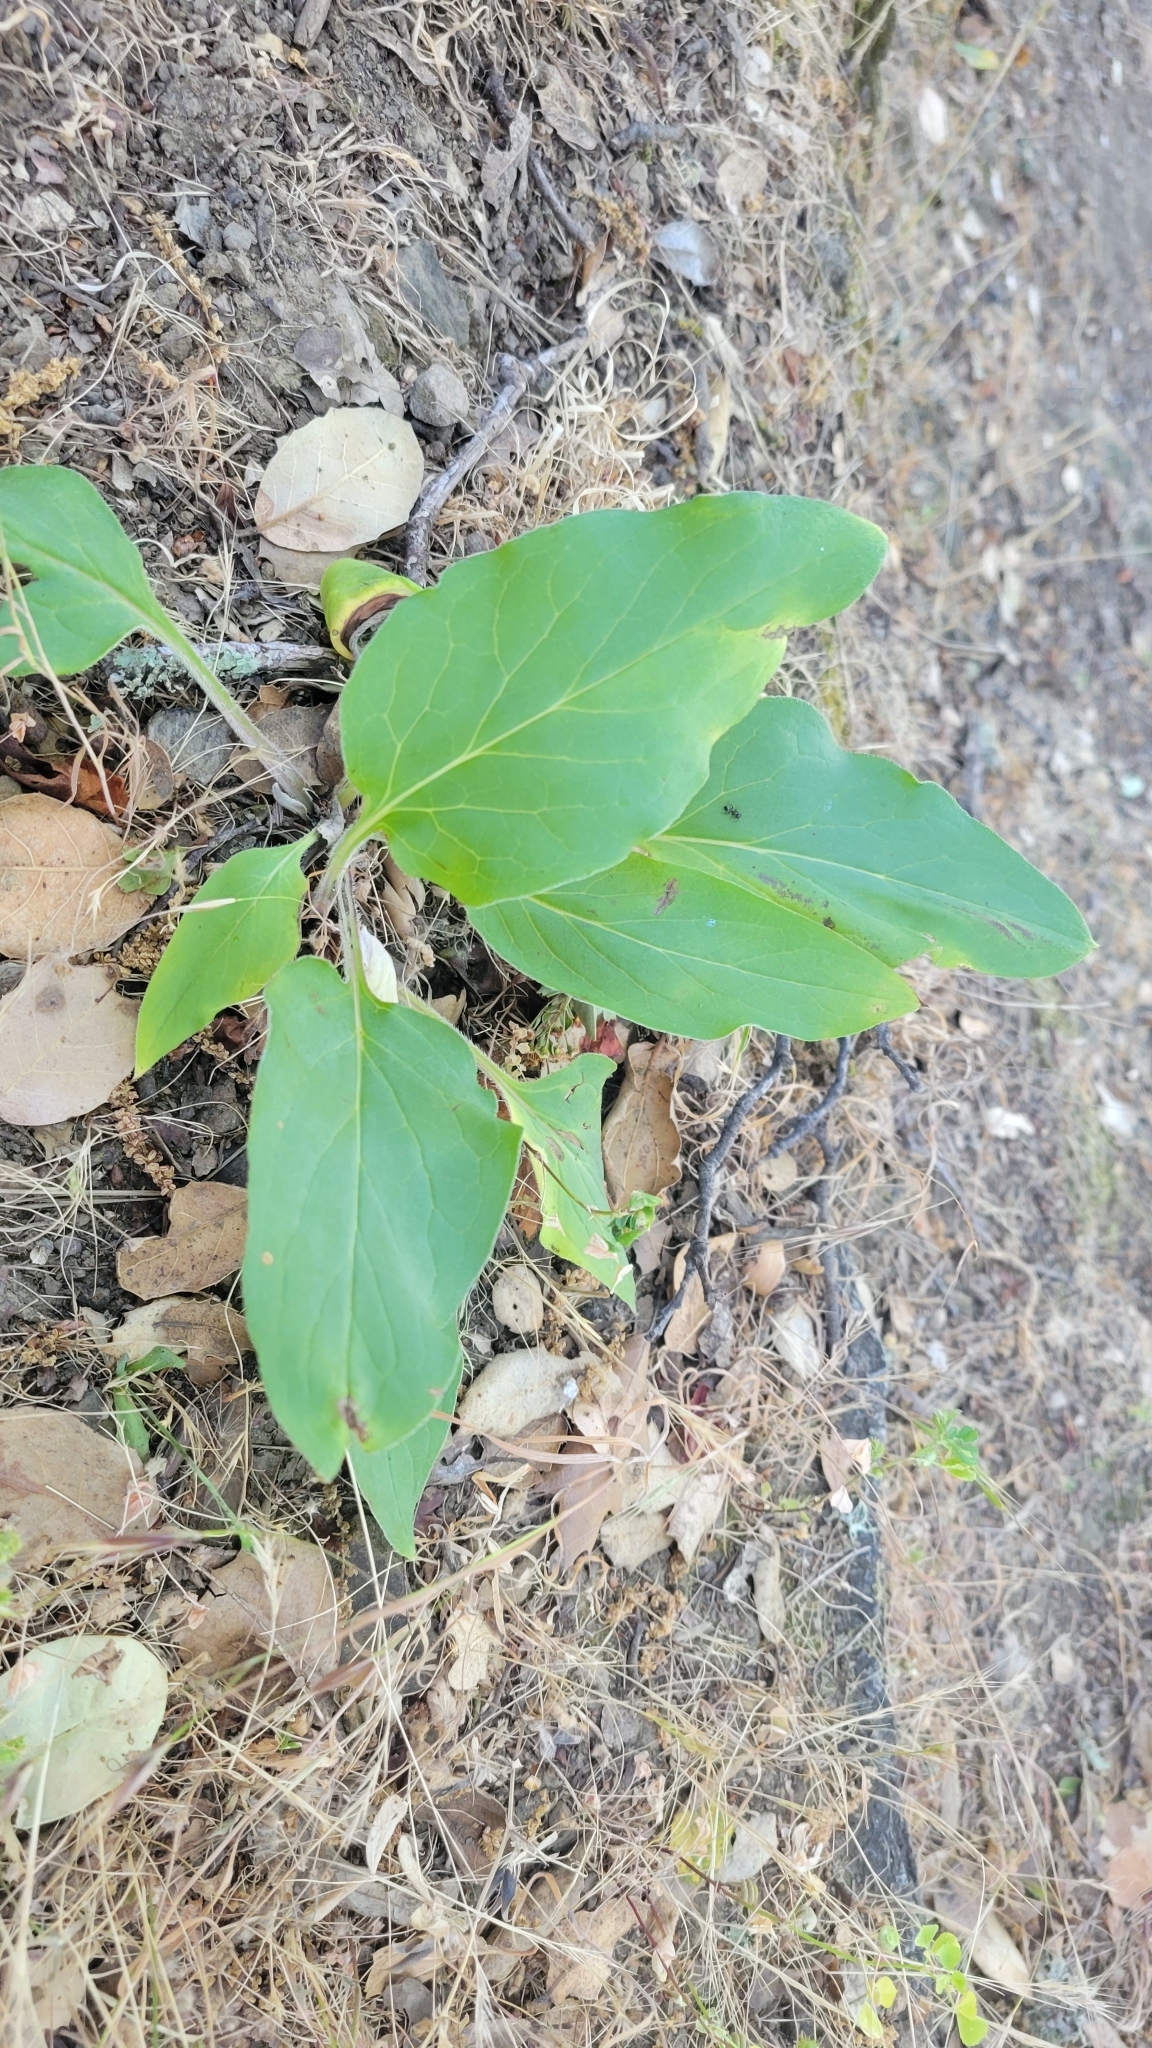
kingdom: Plantae
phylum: Tracheophyta
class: Magnoliopsida
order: Boraginales
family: Boraginaceae
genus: Adelinia
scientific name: Adelinia grande
